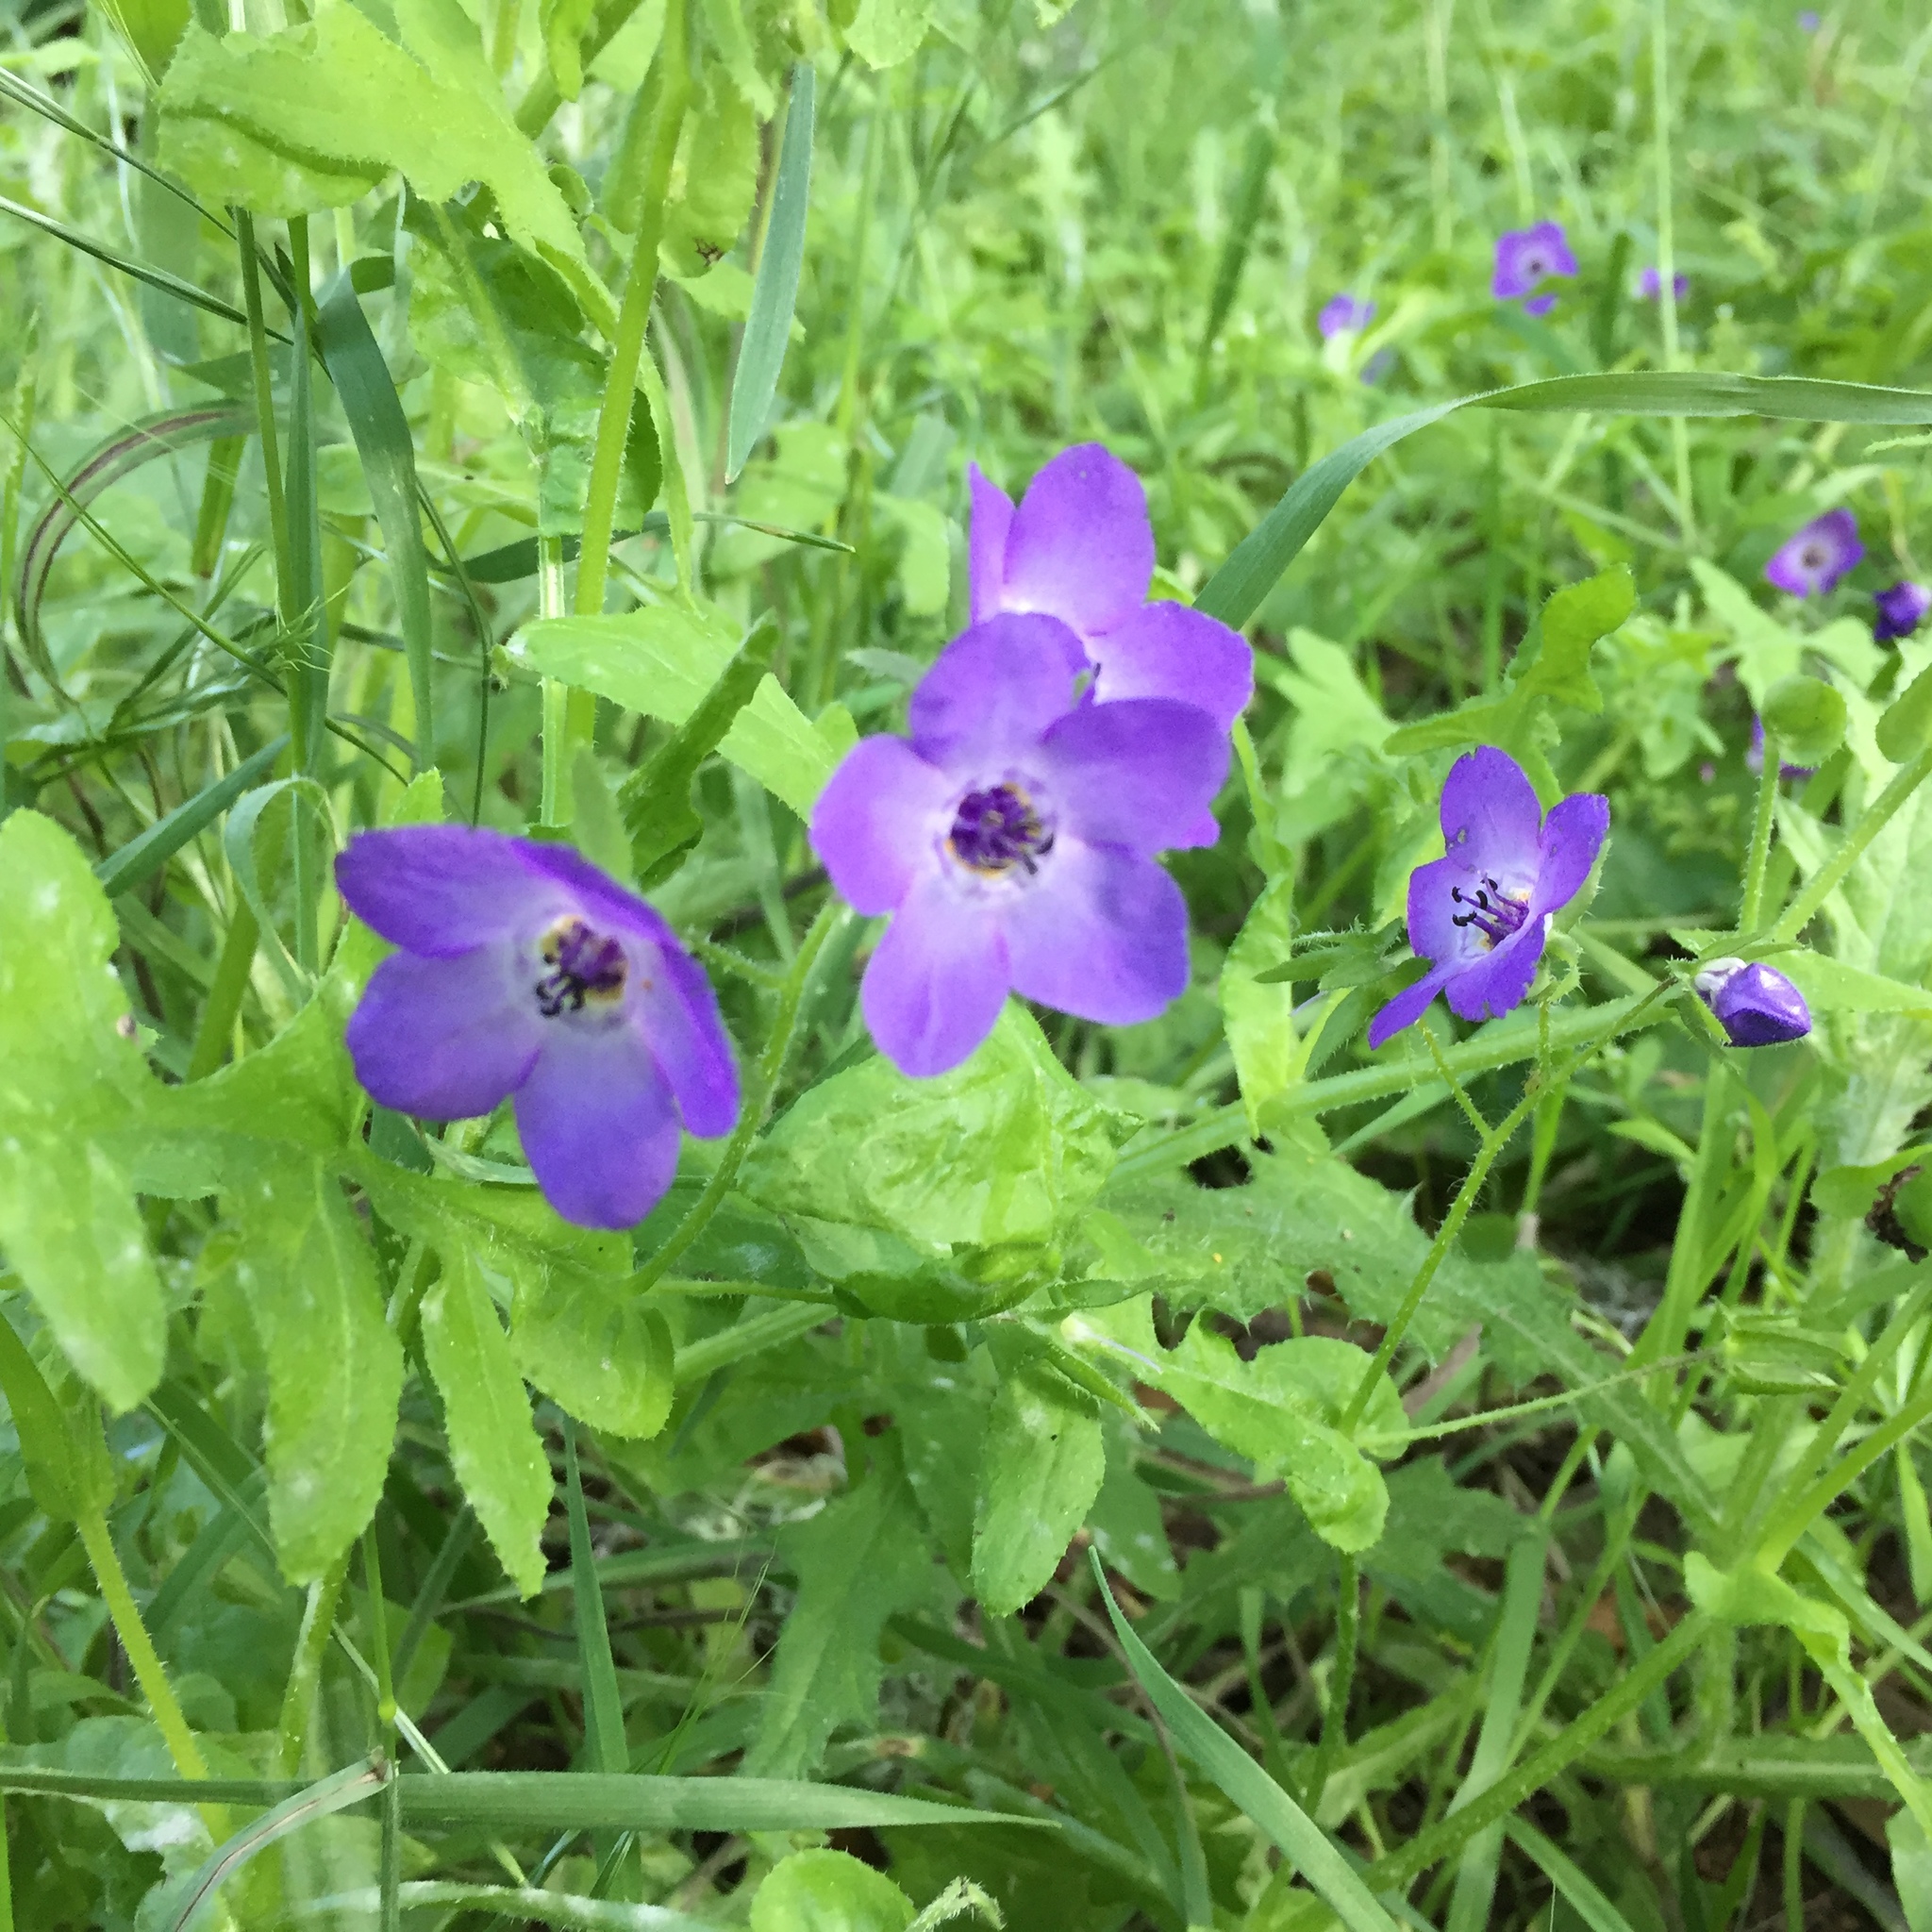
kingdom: Plantae
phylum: Tracheophyta
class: Magnoliopsida
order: Boraginales
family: Hydrophyllaceae
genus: Pholistoma
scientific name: Pholistoma auritum
